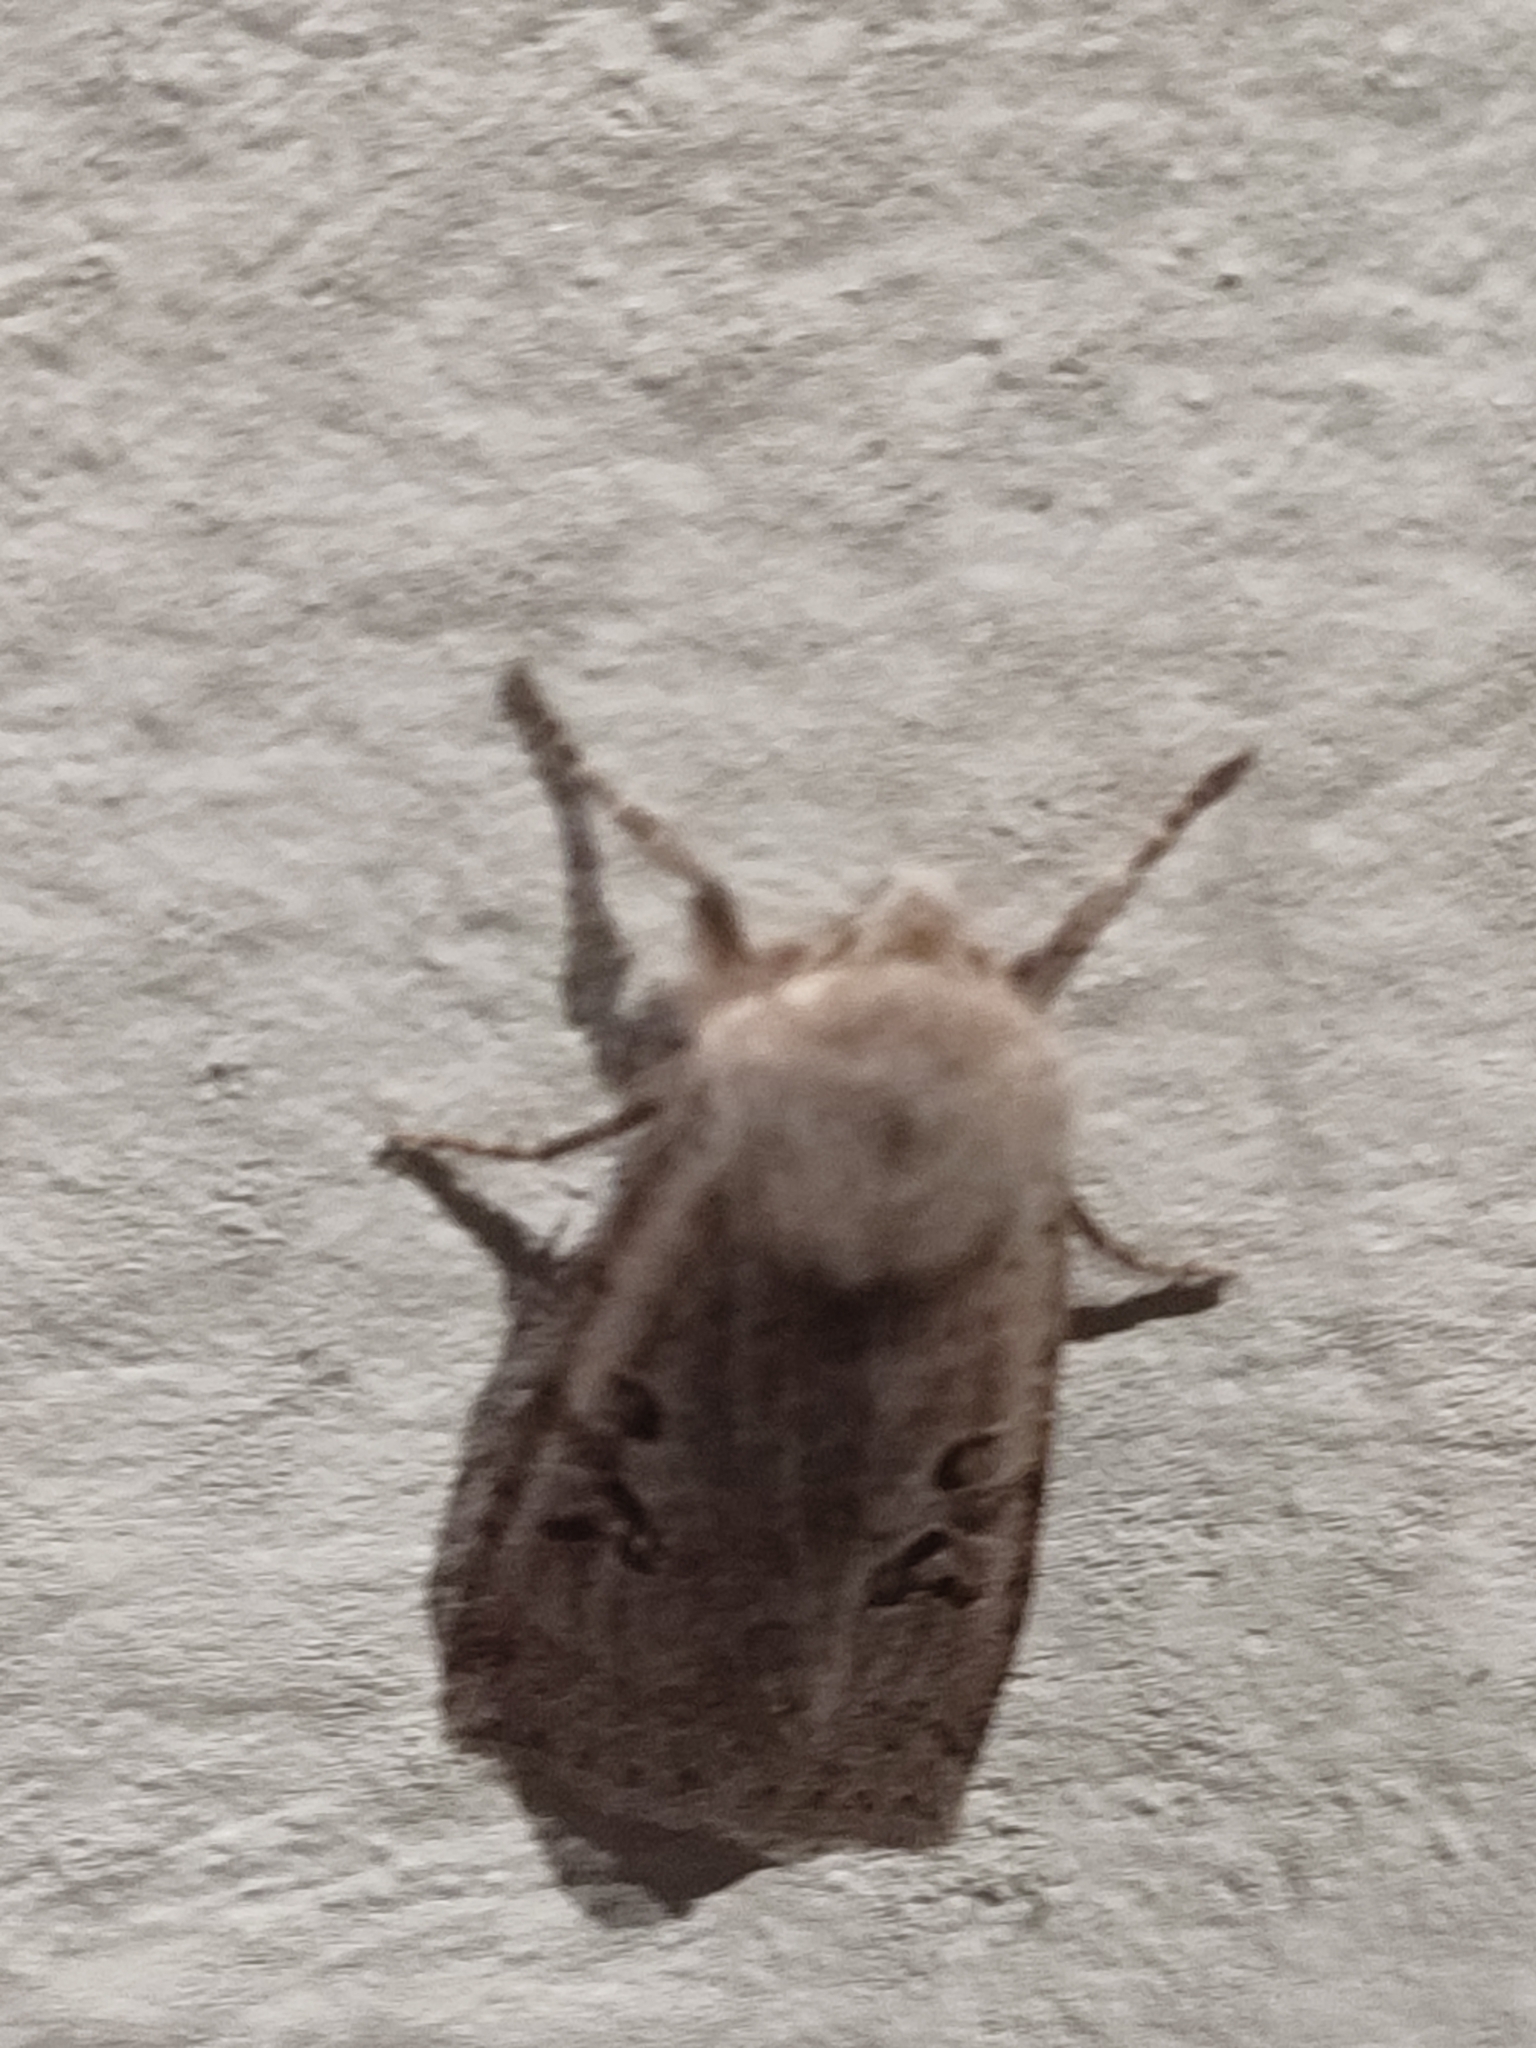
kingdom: Animalia
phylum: Arthropoda
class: Insecta
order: Lepidoptera
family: Noctuidae
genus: Conistra
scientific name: Conistra rubiginosa
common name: Black-spotted chestnut
